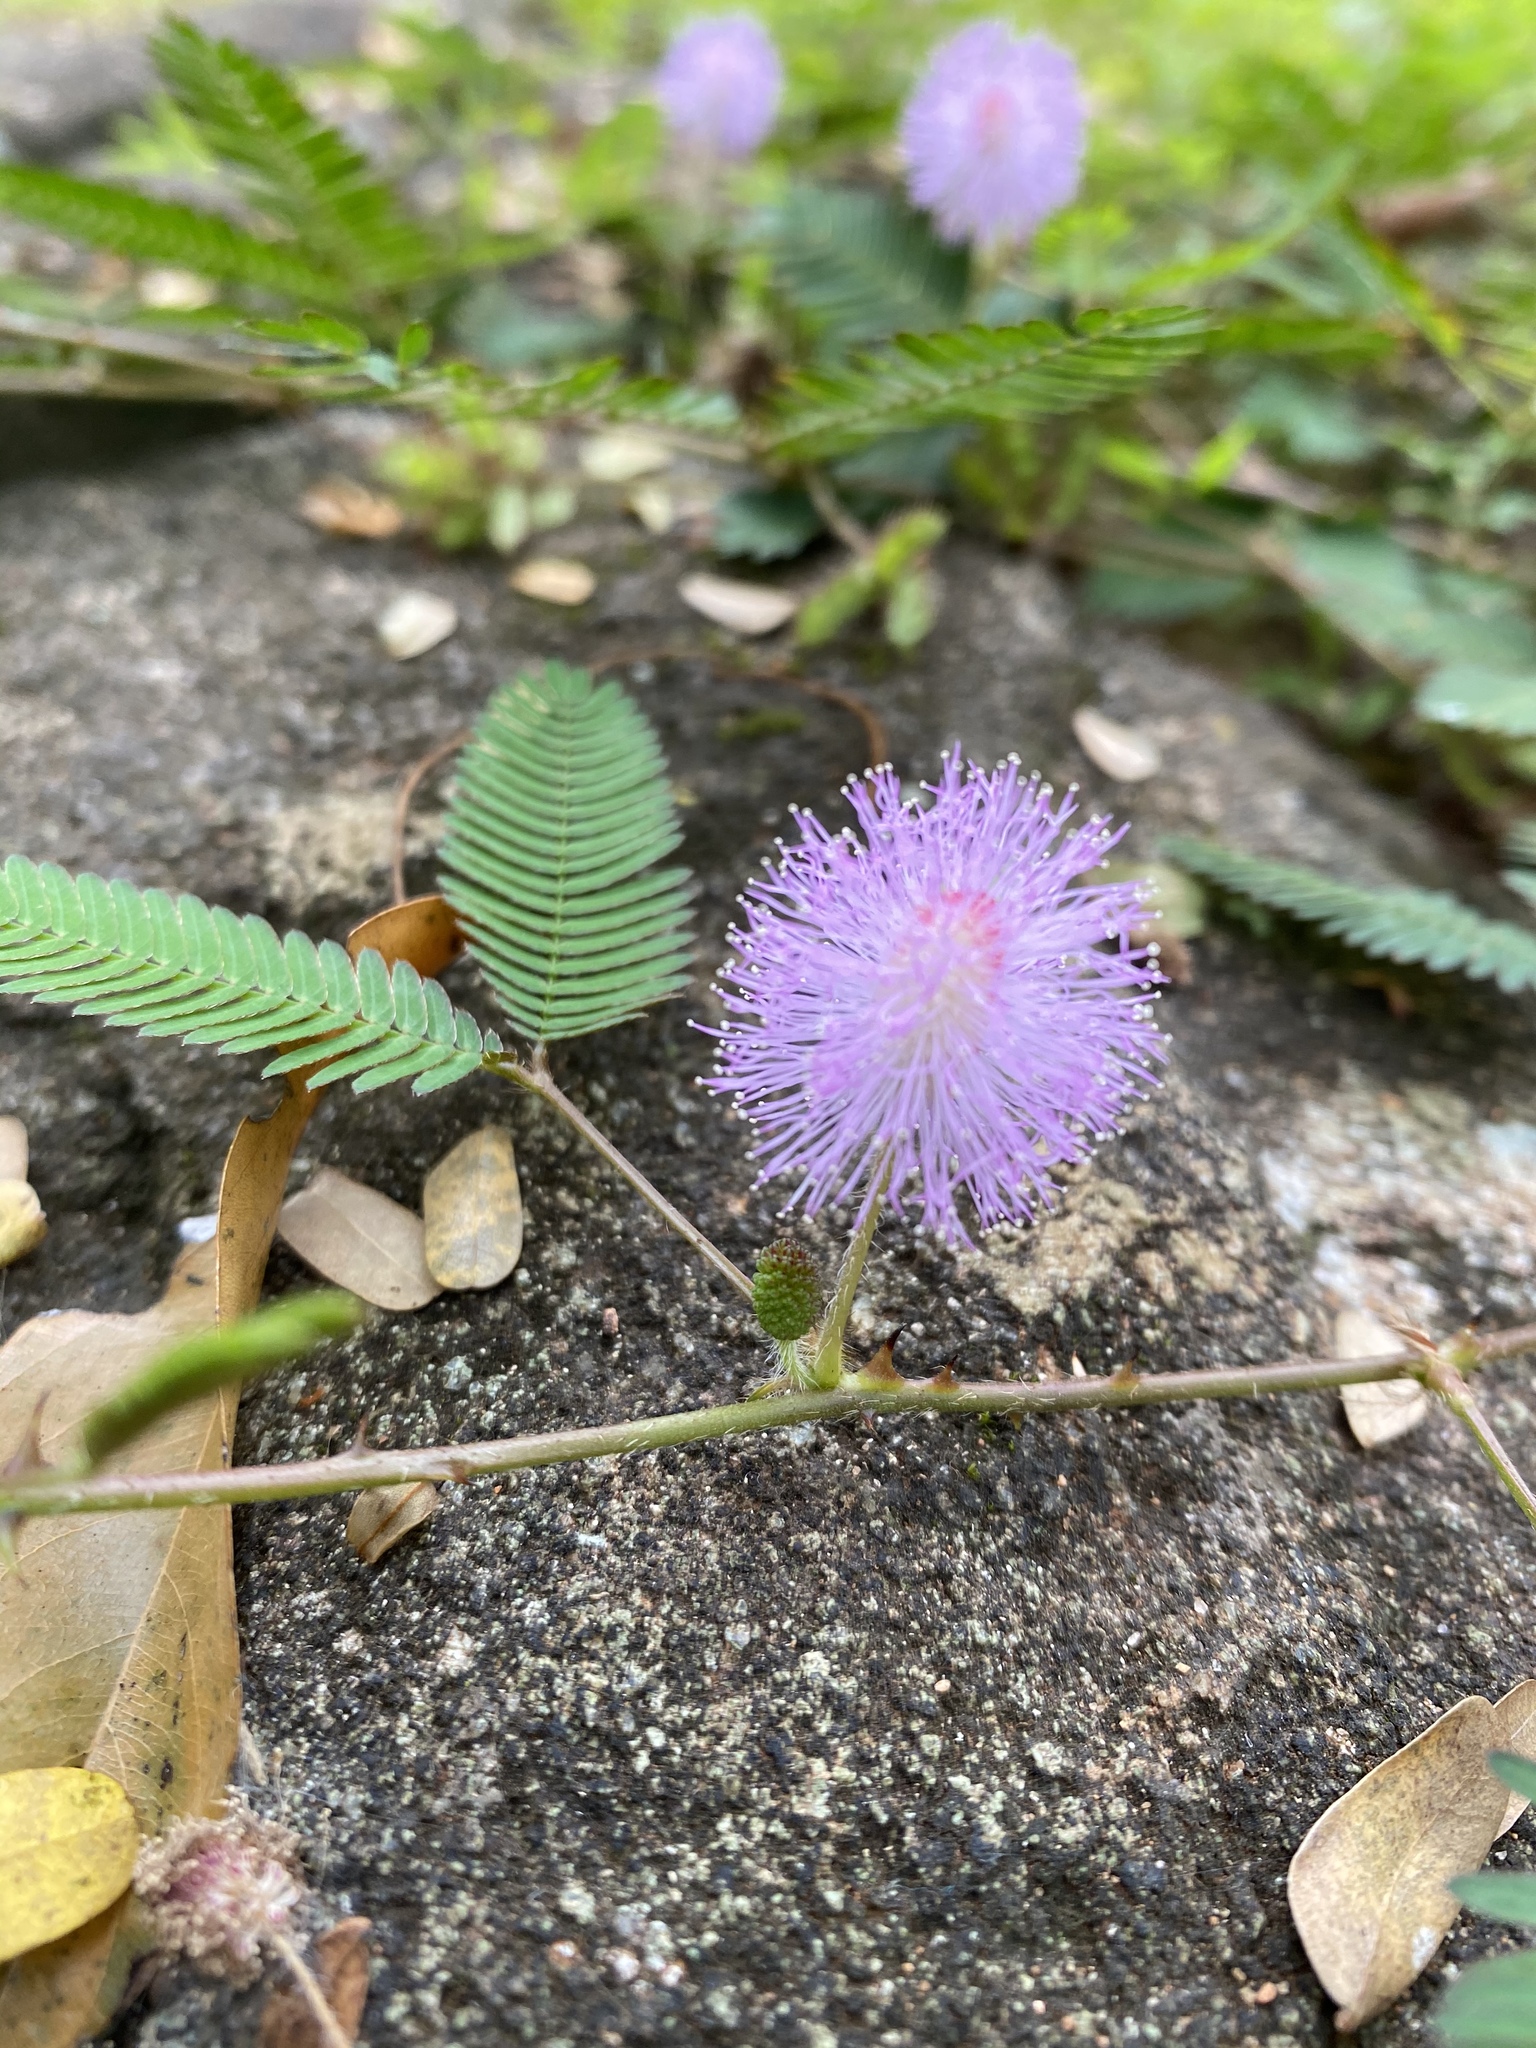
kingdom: Plantae
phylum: Tracheophyta
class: Magnoliopsida
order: Fabales
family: Fabaceae
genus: Mimosa
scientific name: Mimosa pudica
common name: Sensitive plant
